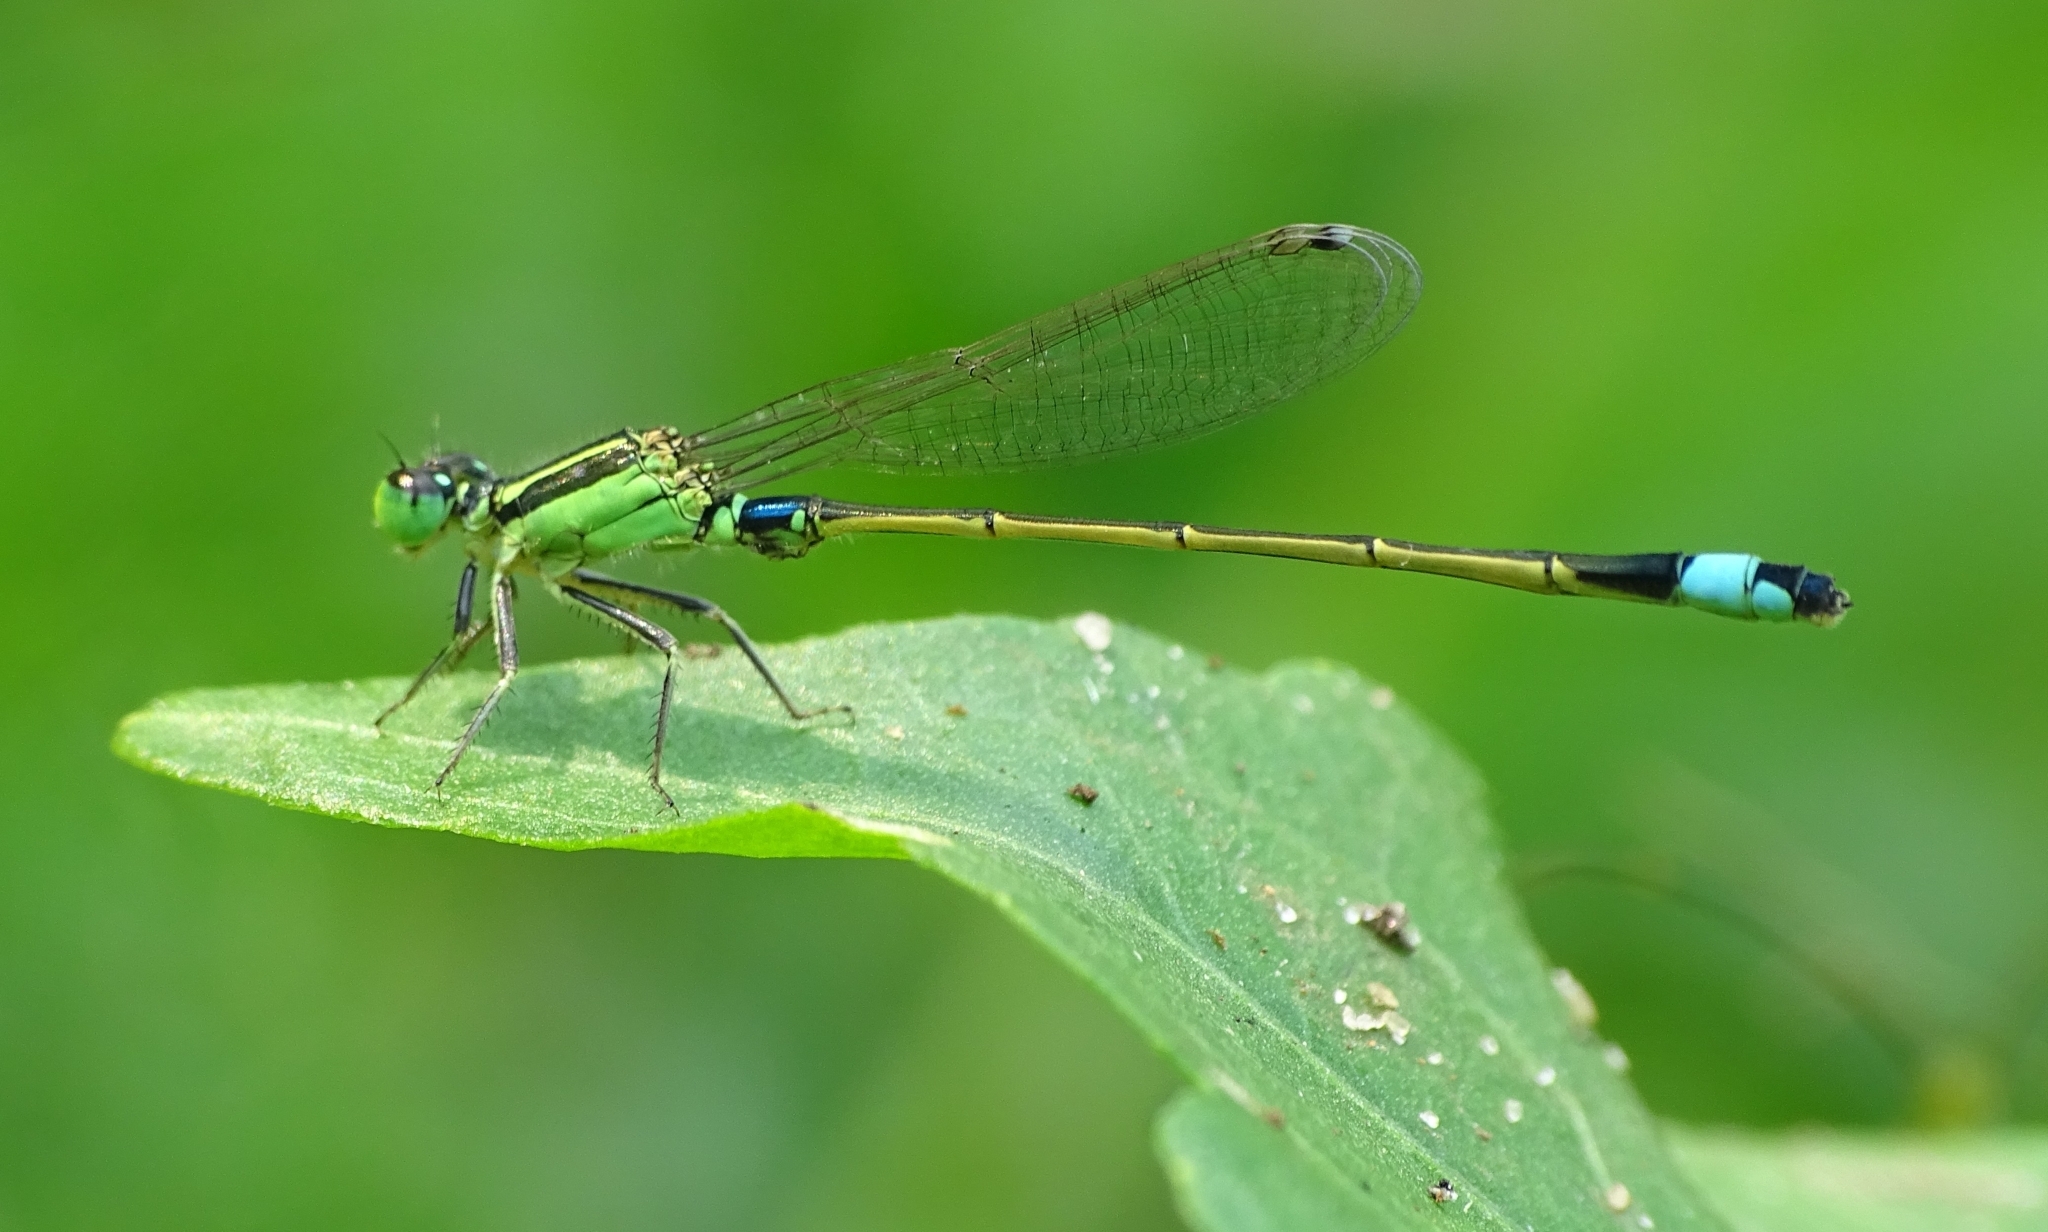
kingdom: Animalia
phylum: Arthropoda
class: Insecta
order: Odonata
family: Coenagrionidae
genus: Ischnura
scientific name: Ischnura senegalensis
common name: Tropical bluetail
